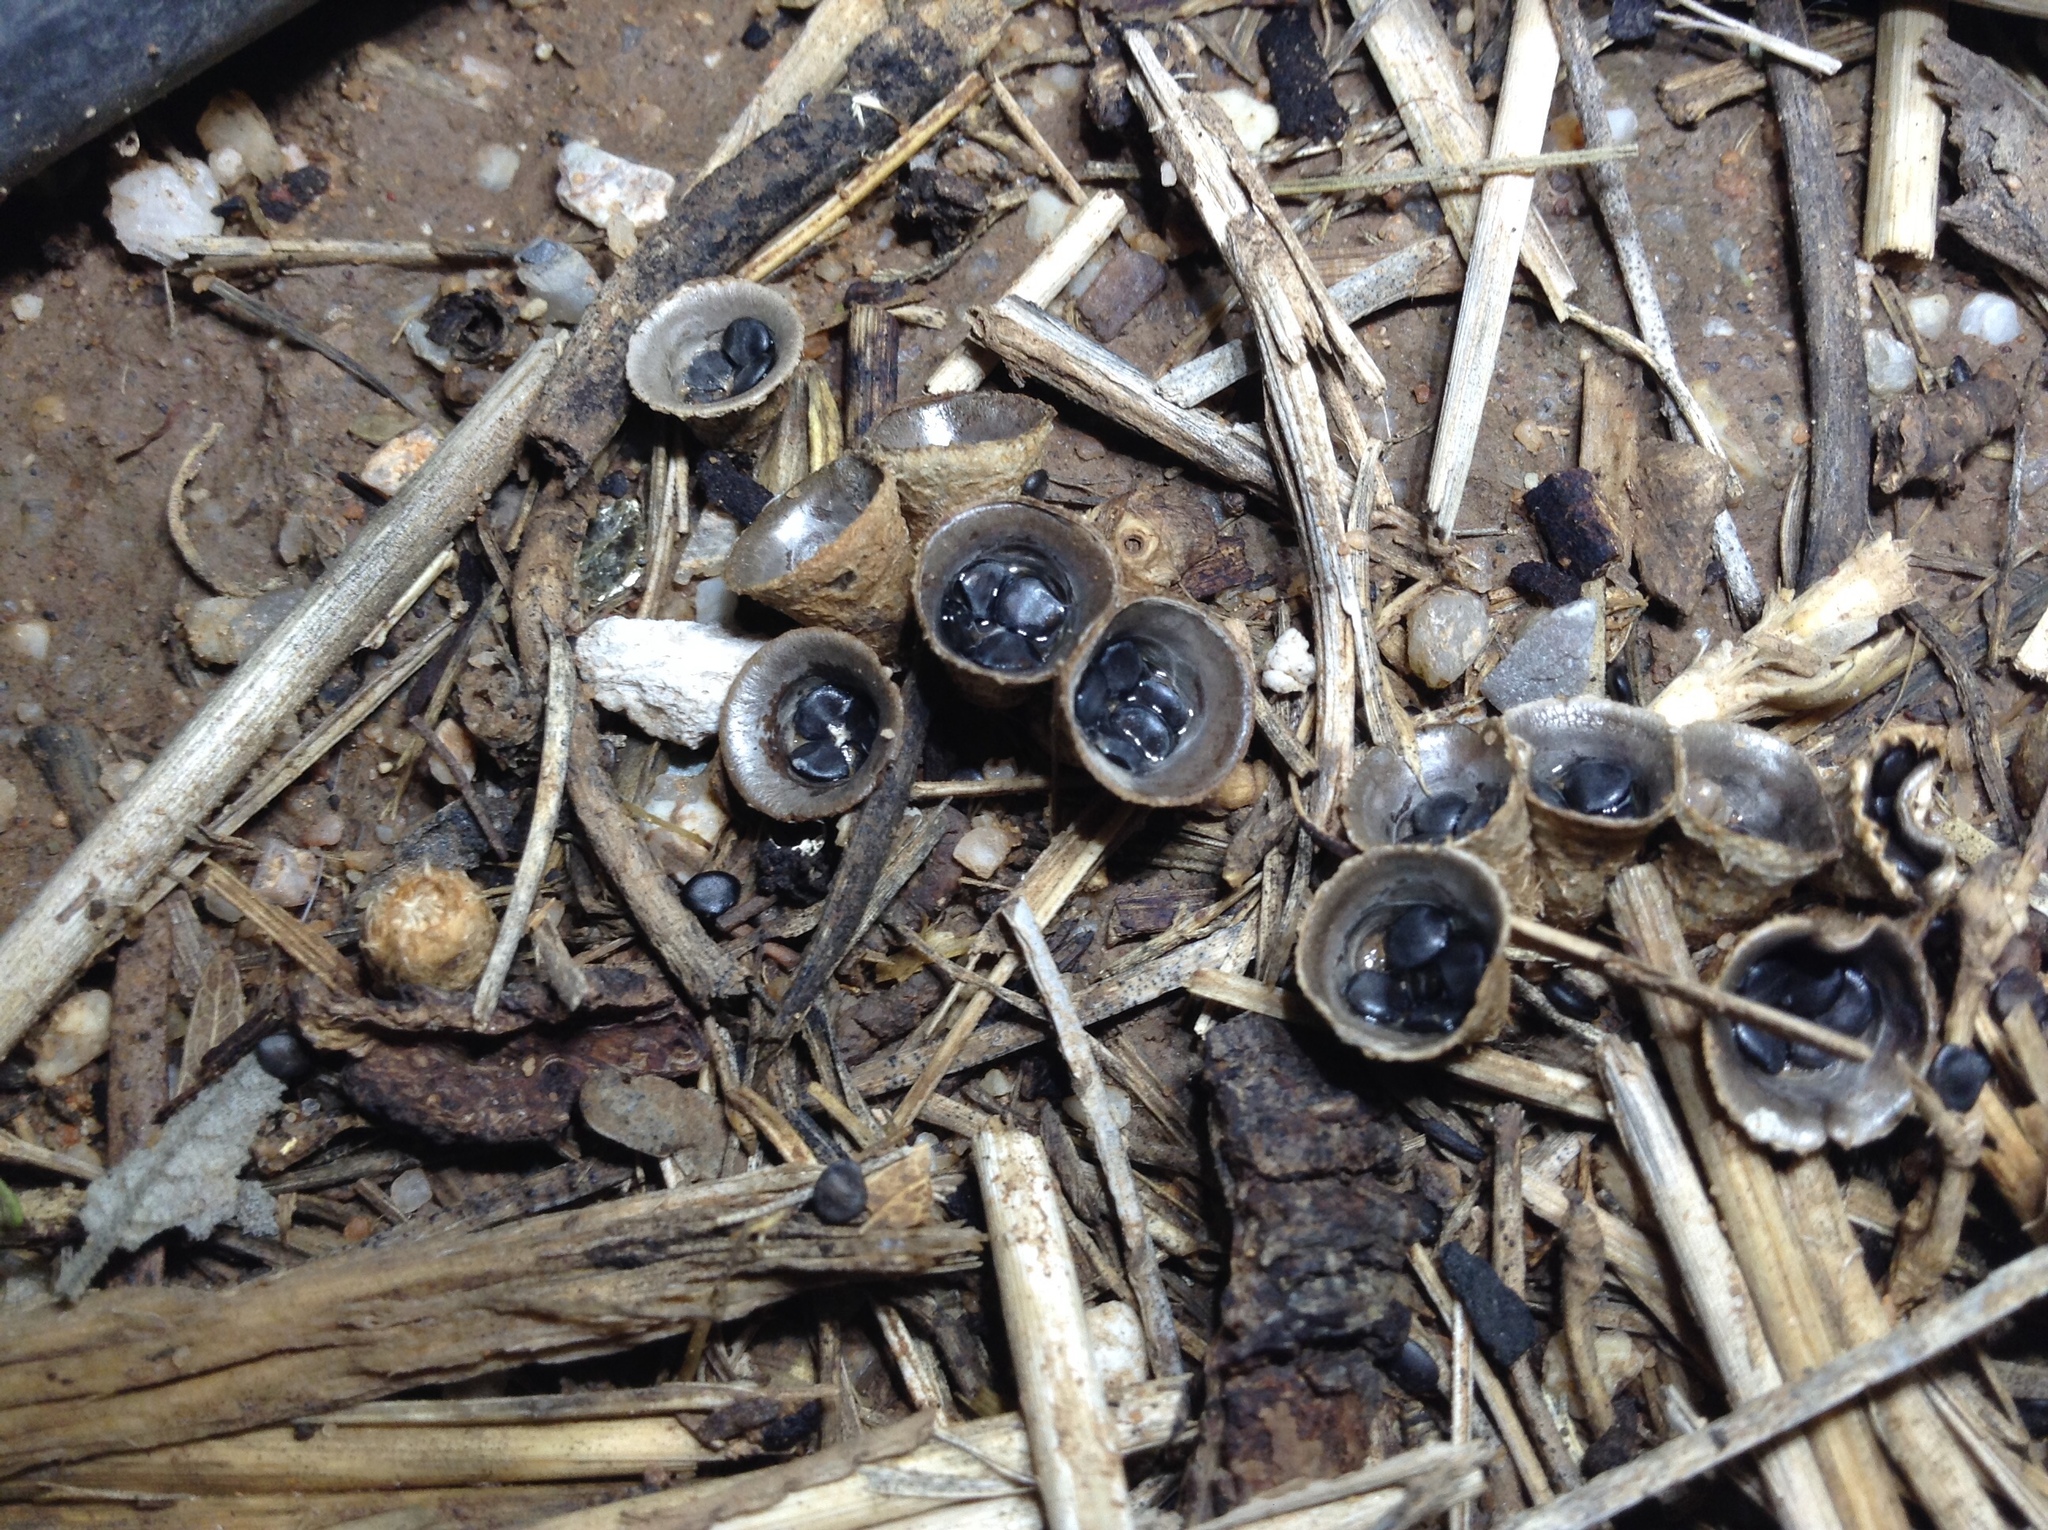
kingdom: Fungi
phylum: Basidiomycota
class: Agaricomycetes
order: Agaricales
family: Agaricaceae
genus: Cyathus
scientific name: Cyathus stercoreus
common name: Dung bird's nest
